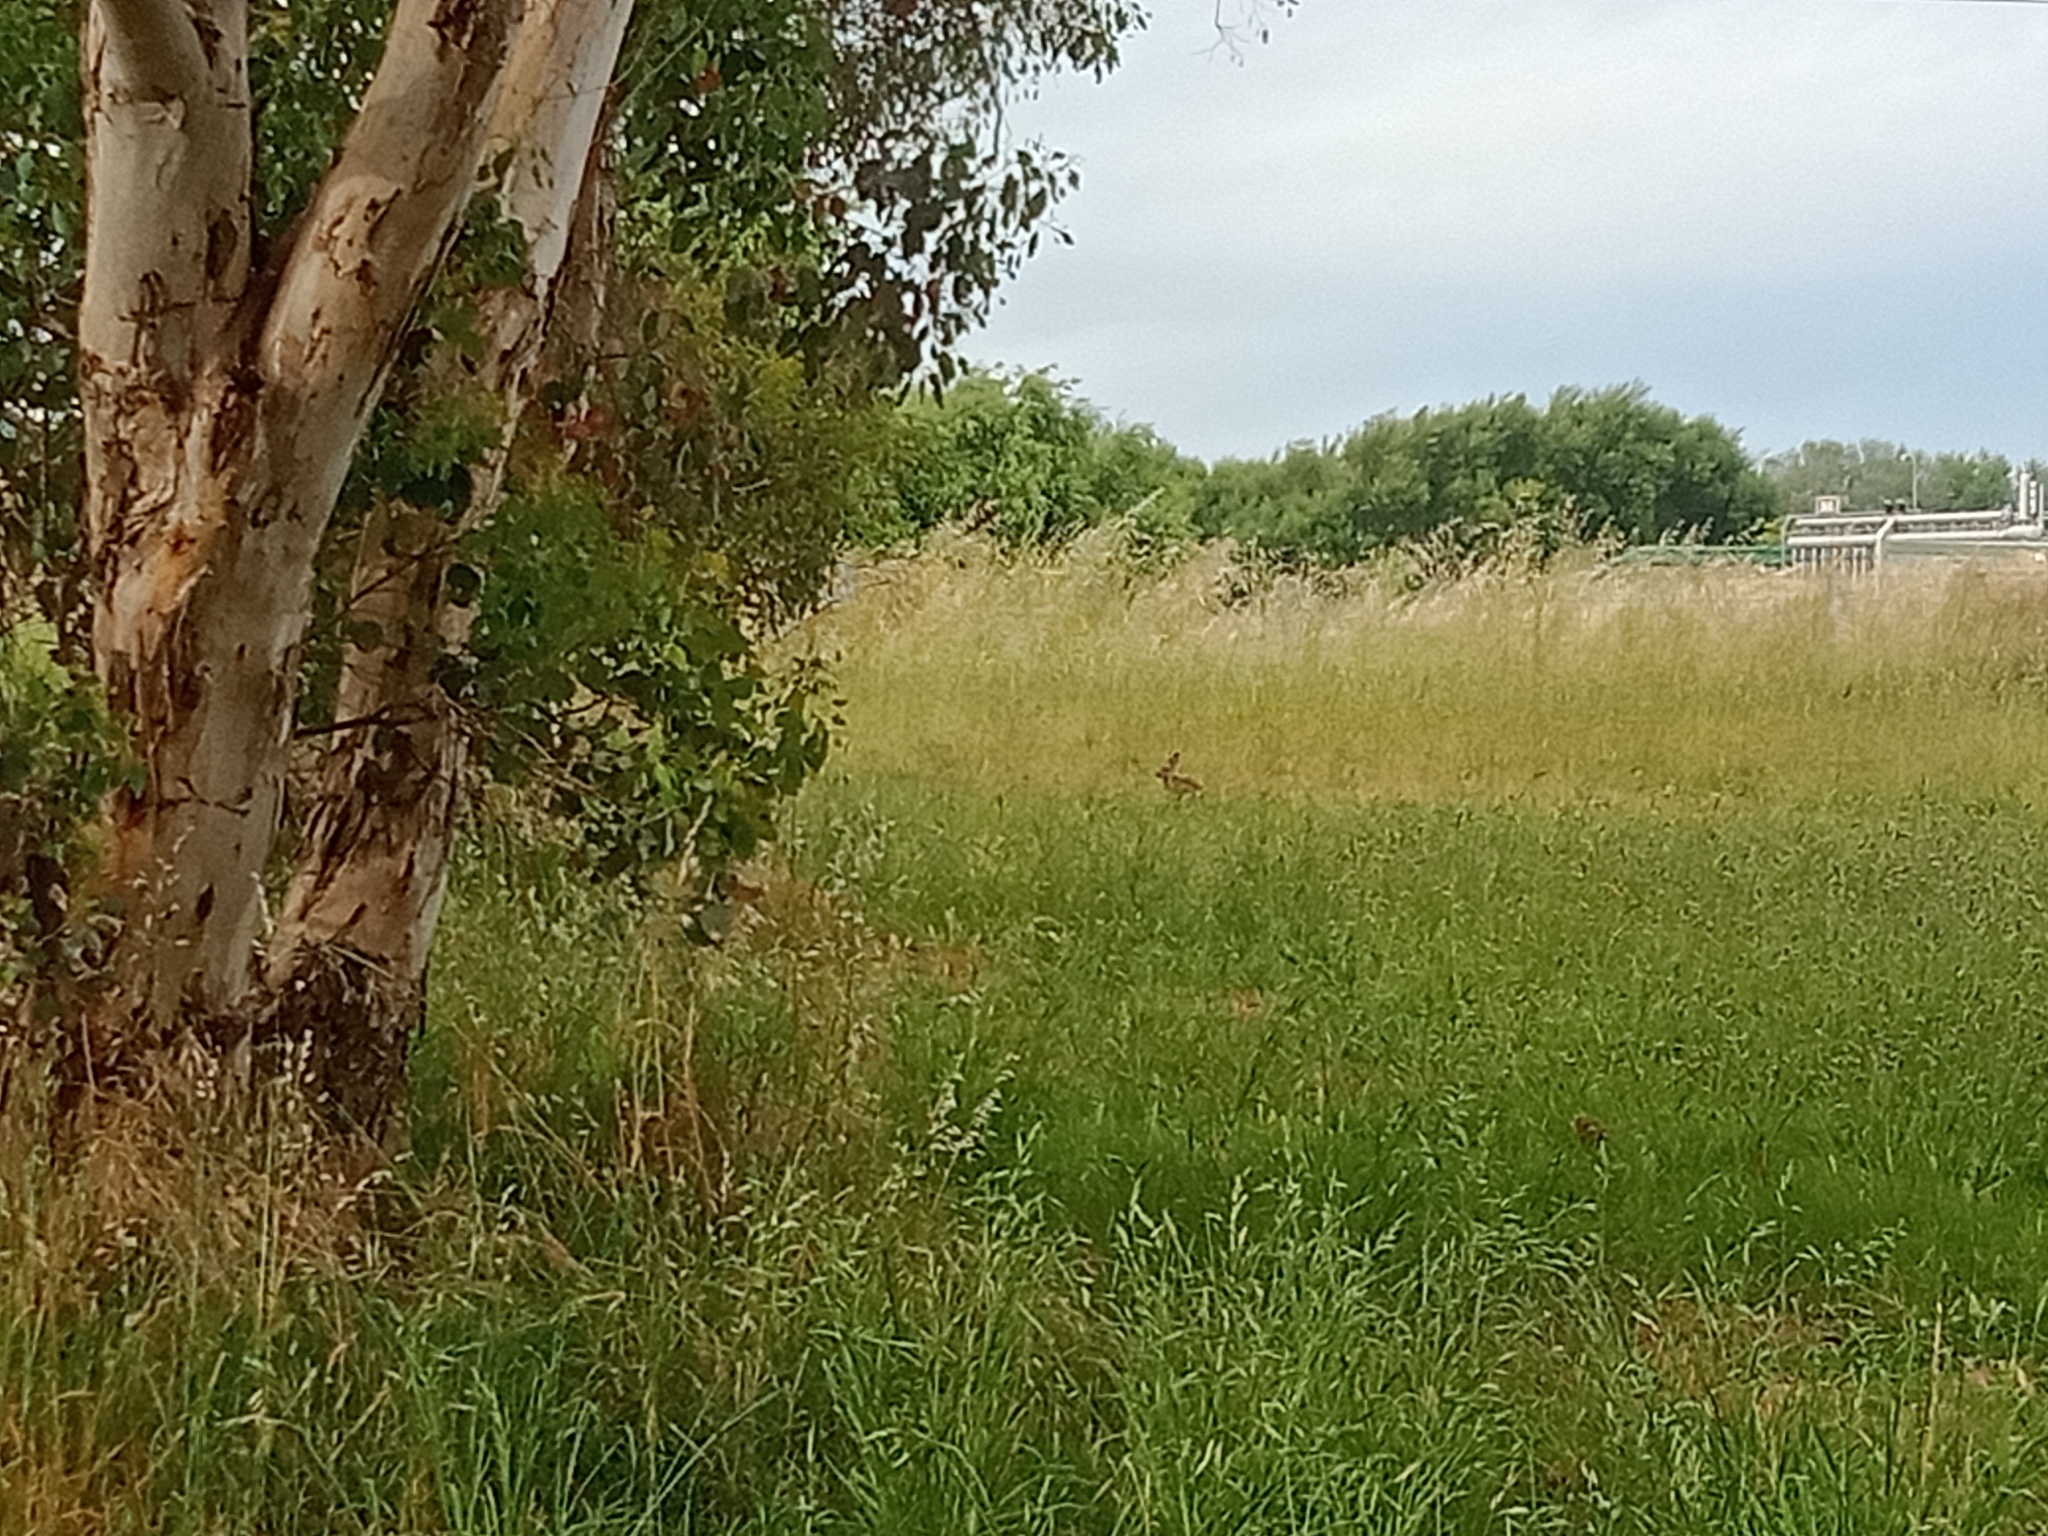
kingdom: Animalia
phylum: Chordata
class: Mammalia
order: Lagomorpha
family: Leporidae
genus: Oryctolagus
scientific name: Oryctolagus cuniculus
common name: European rabbit
